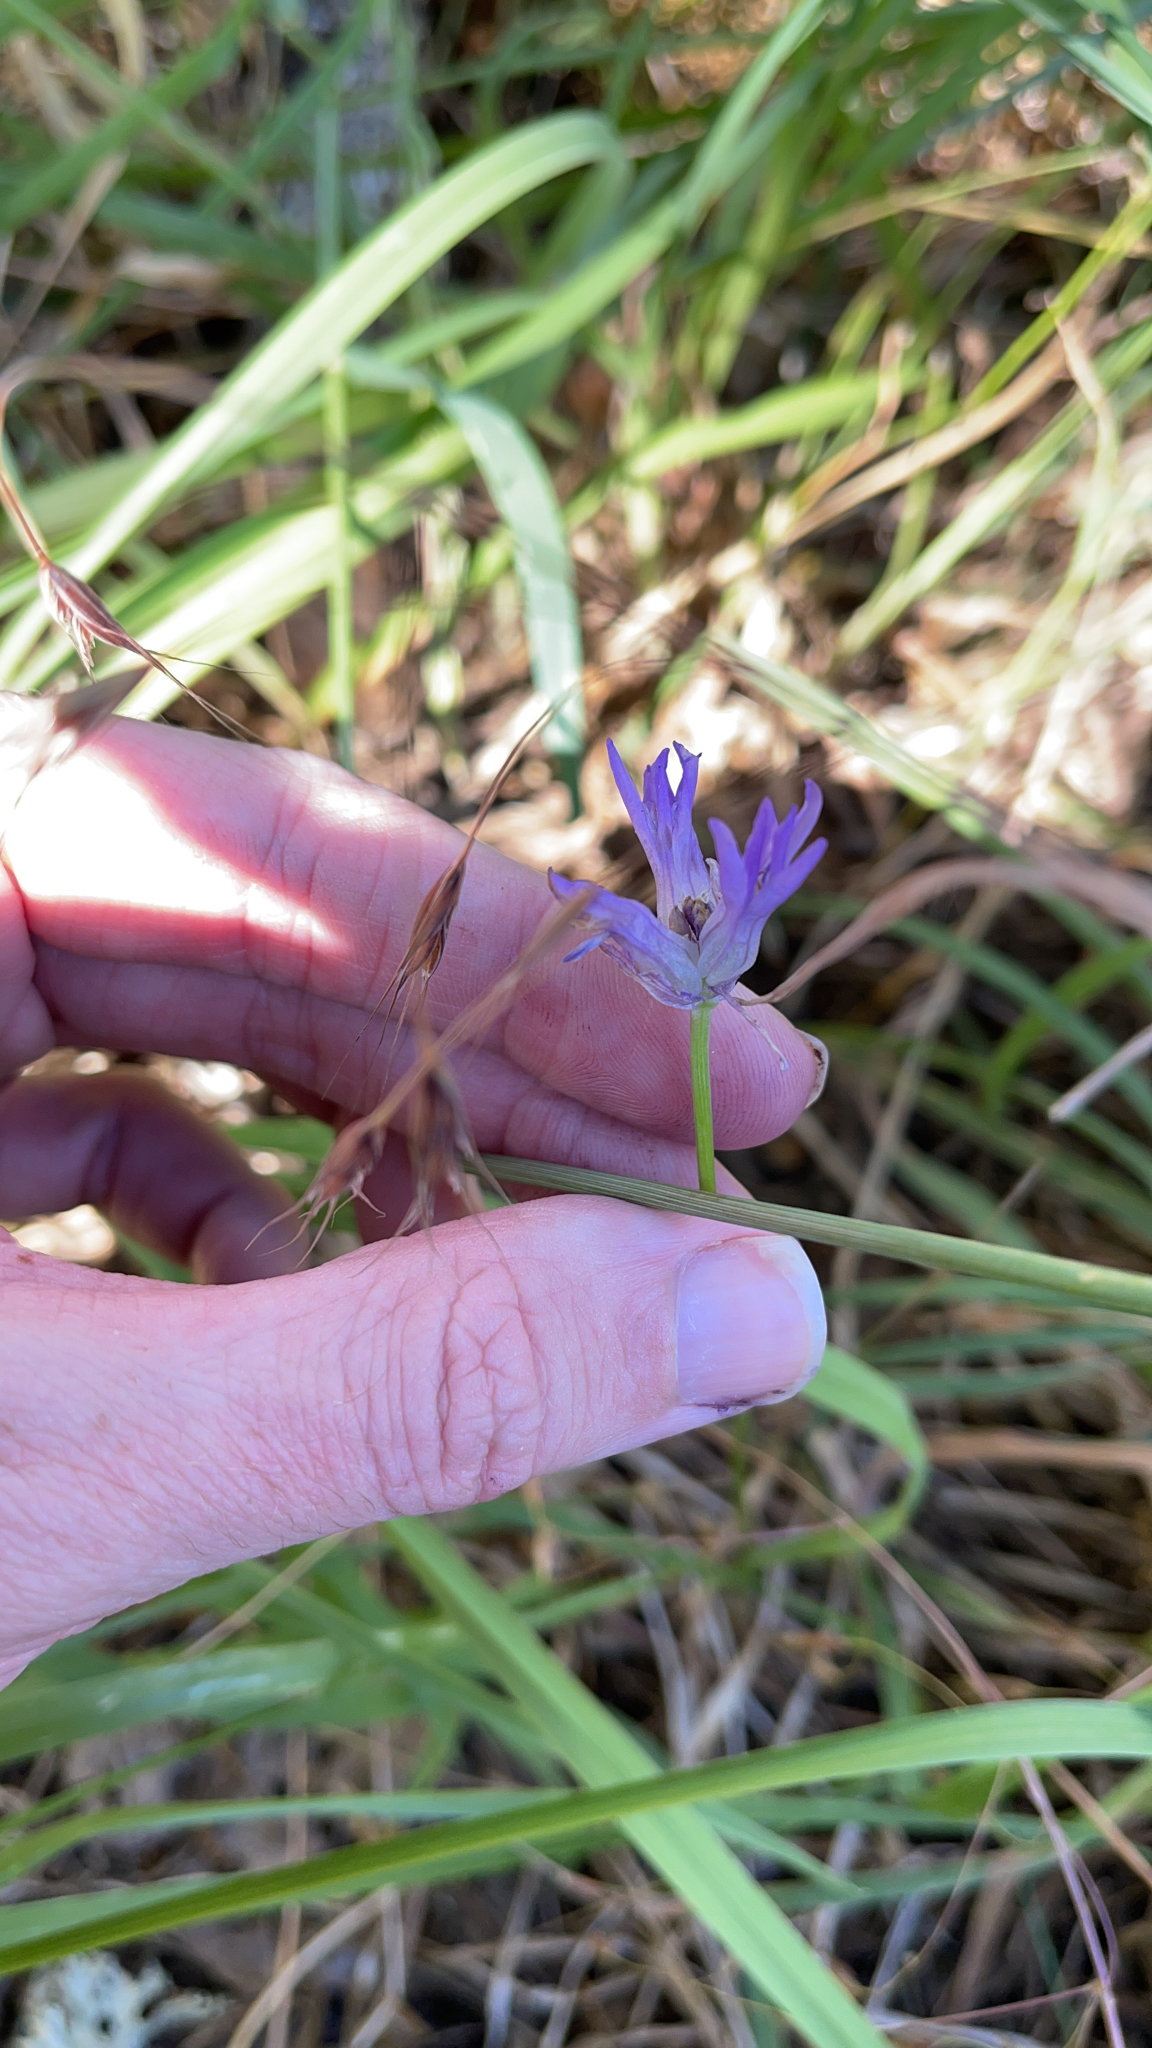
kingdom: Plantae
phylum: Tracheophyta
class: Liliopsida
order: Asparagales
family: Asparagaceae
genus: Dichelostemma
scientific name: Dichelostemma congestum
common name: Fork-tooth ookow
